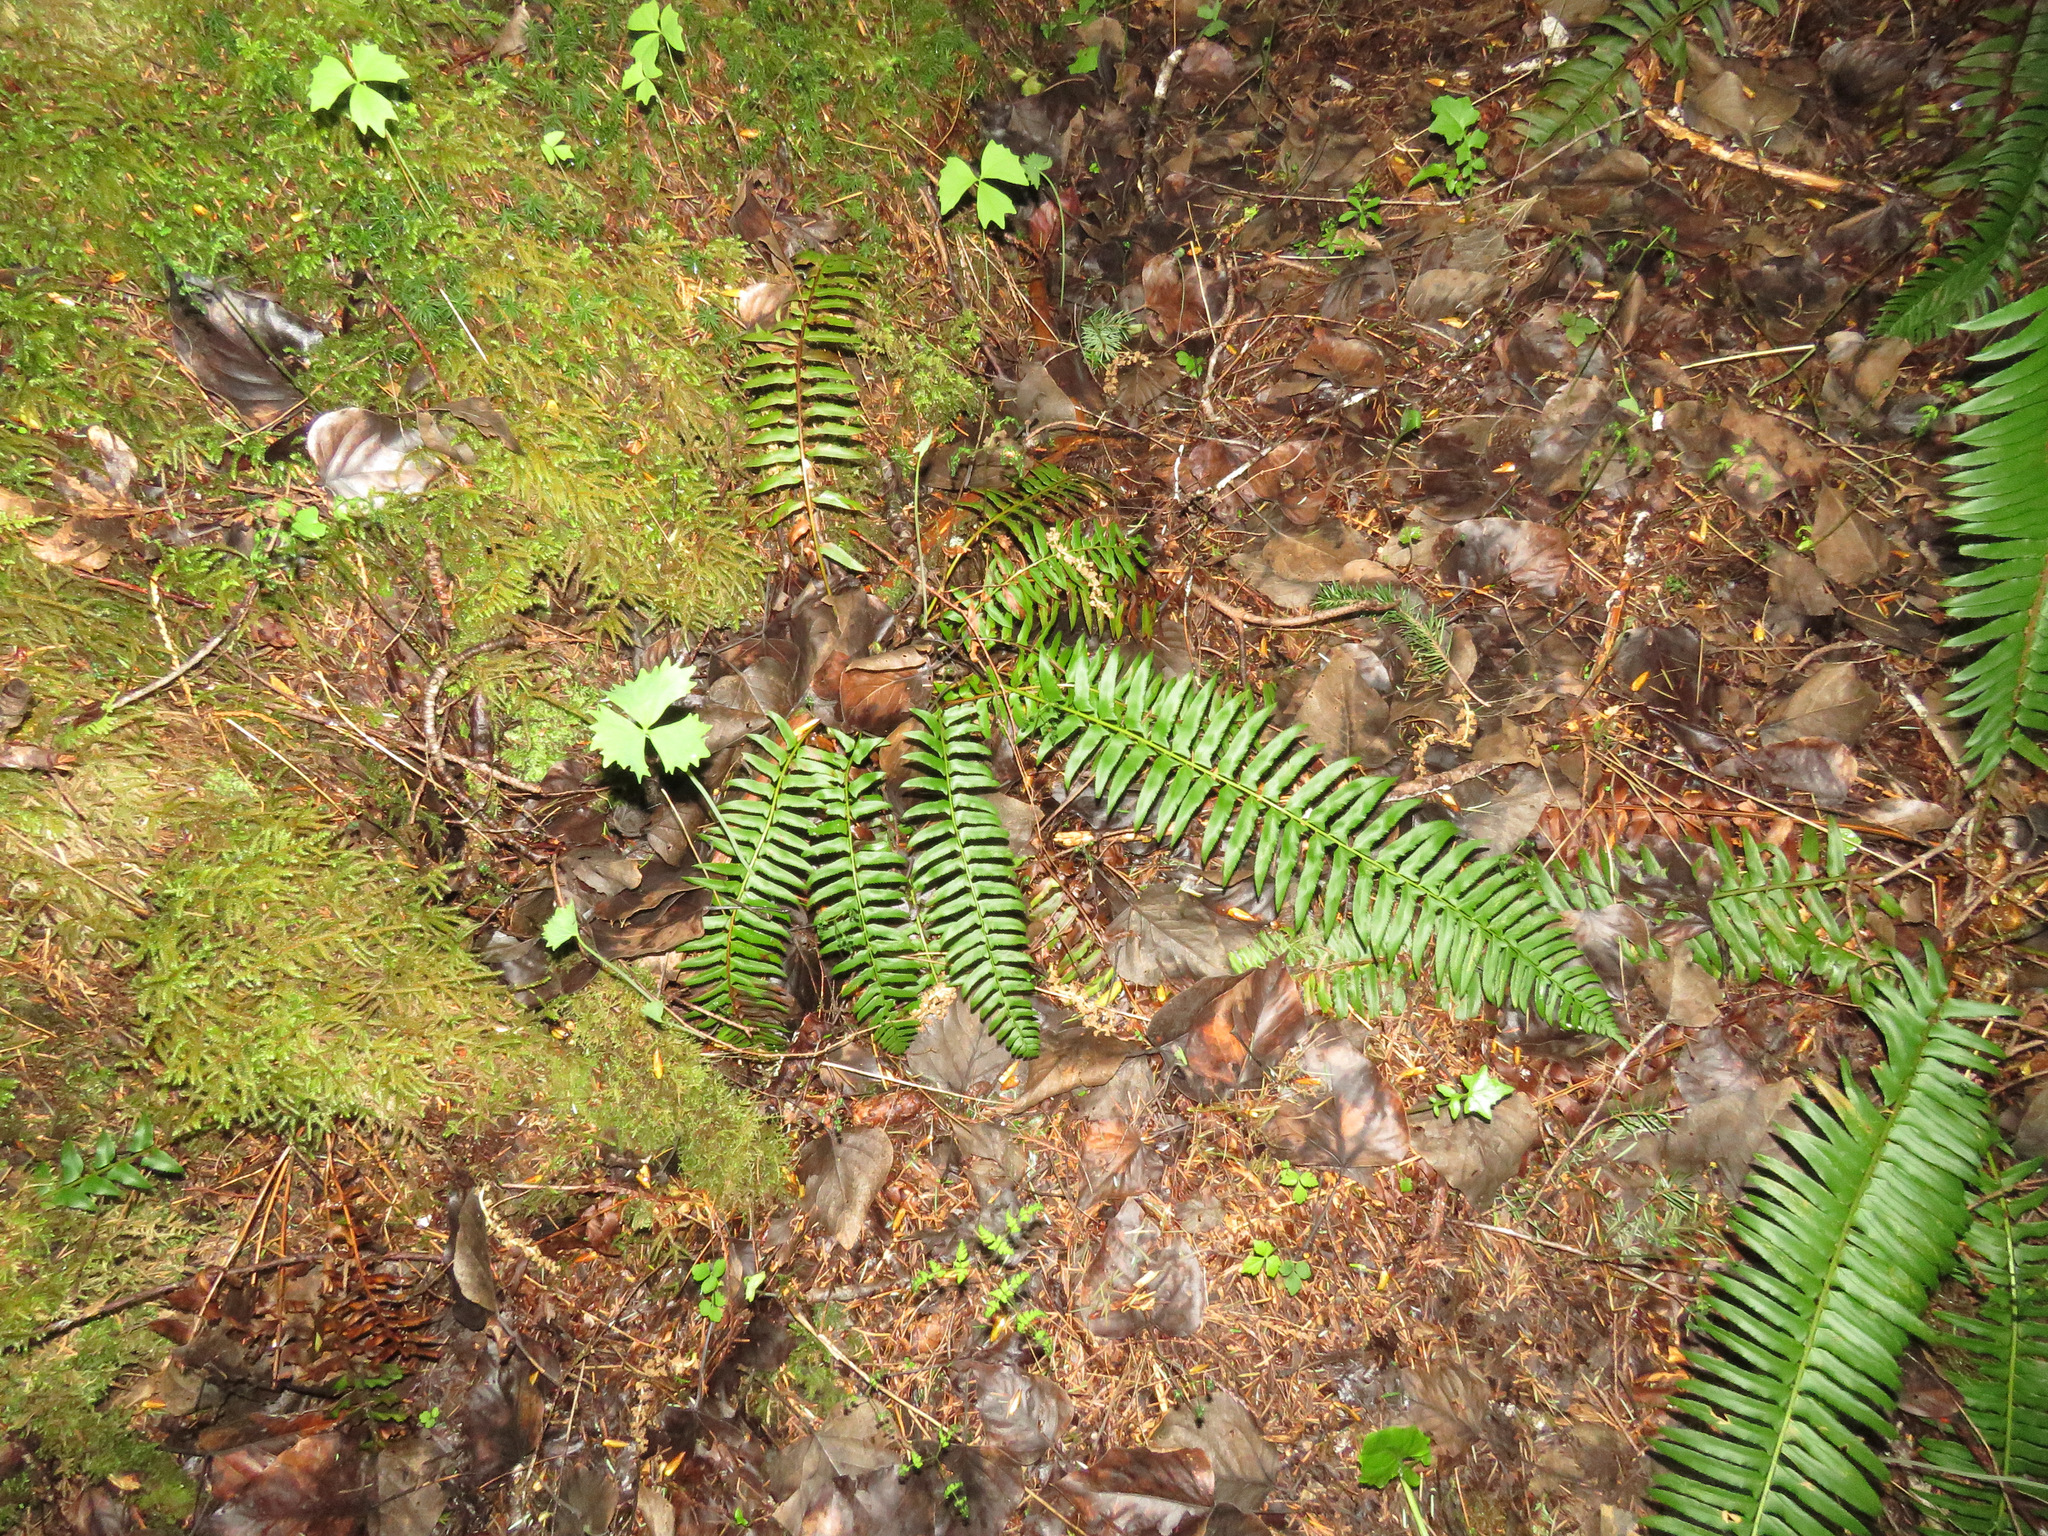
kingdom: Plantae
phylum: Tracheophyta
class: Polypodiopsida
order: Polypodiales
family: Dryopteridaceae
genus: Polystichum
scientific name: Polystichum munitum
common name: Western sword-fern
